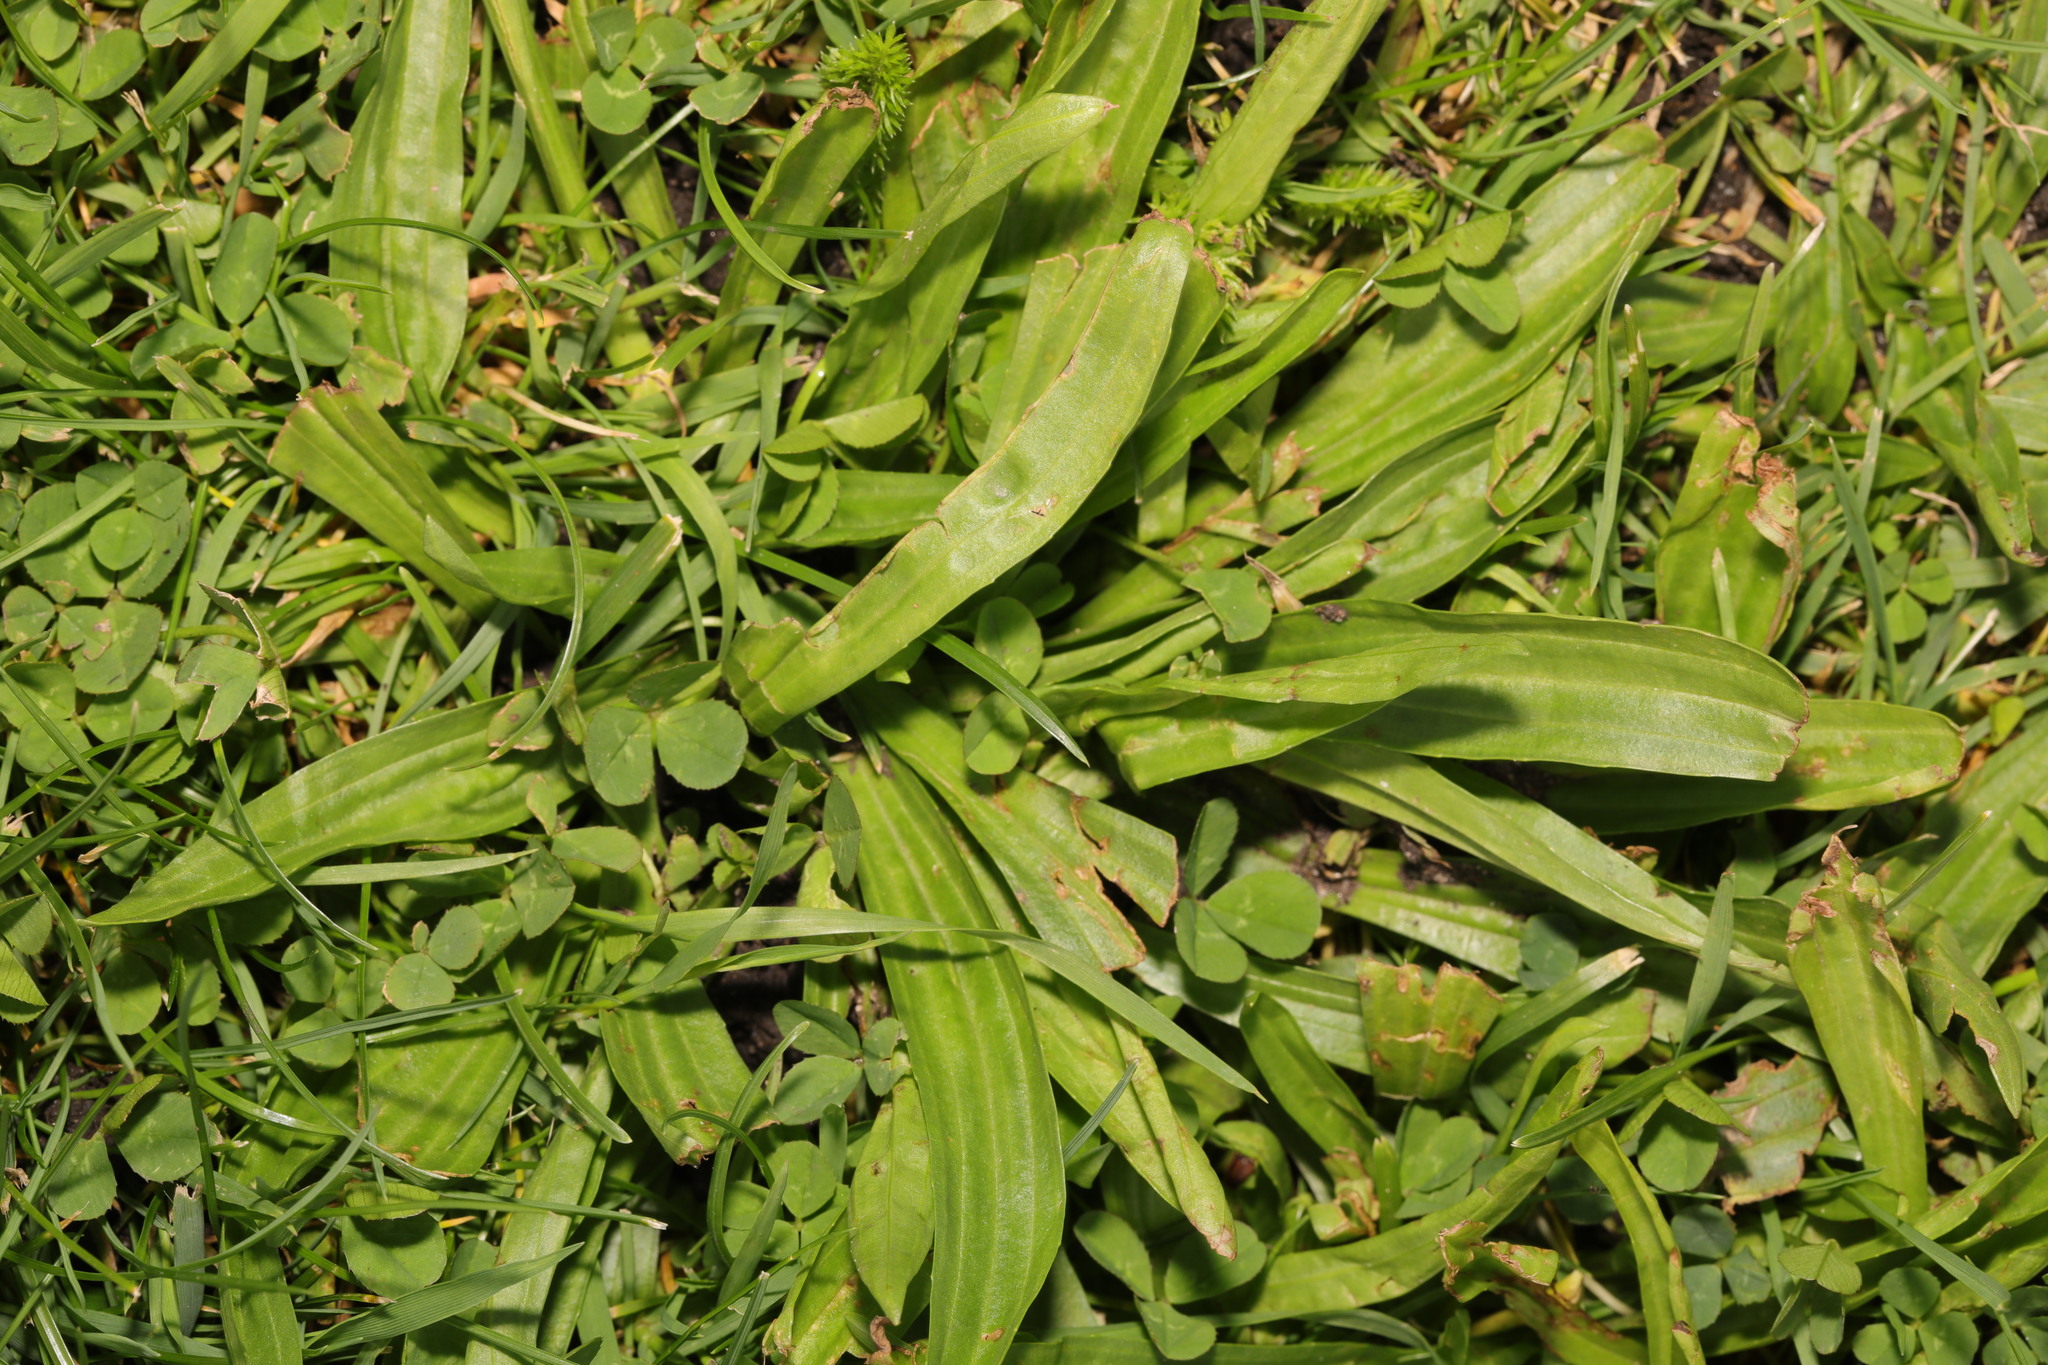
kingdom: Plantae
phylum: Tracheophyta
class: Magnoliopsida
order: Lamiales
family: Plantaginaceae
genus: Plantago
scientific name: Plantago lanceolata
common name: Ribwort plantain
